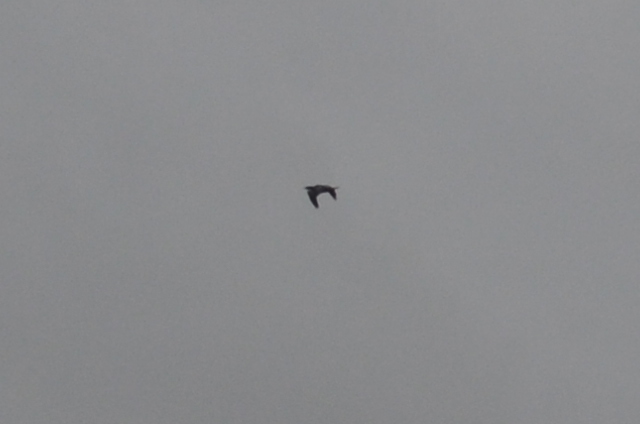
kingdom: Animalia
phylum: Chordata
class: Aves
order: Suliformes
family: Phalacrocoracidae
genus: Microcarbo
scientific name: Microcarbo niger
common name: Little cormorant
